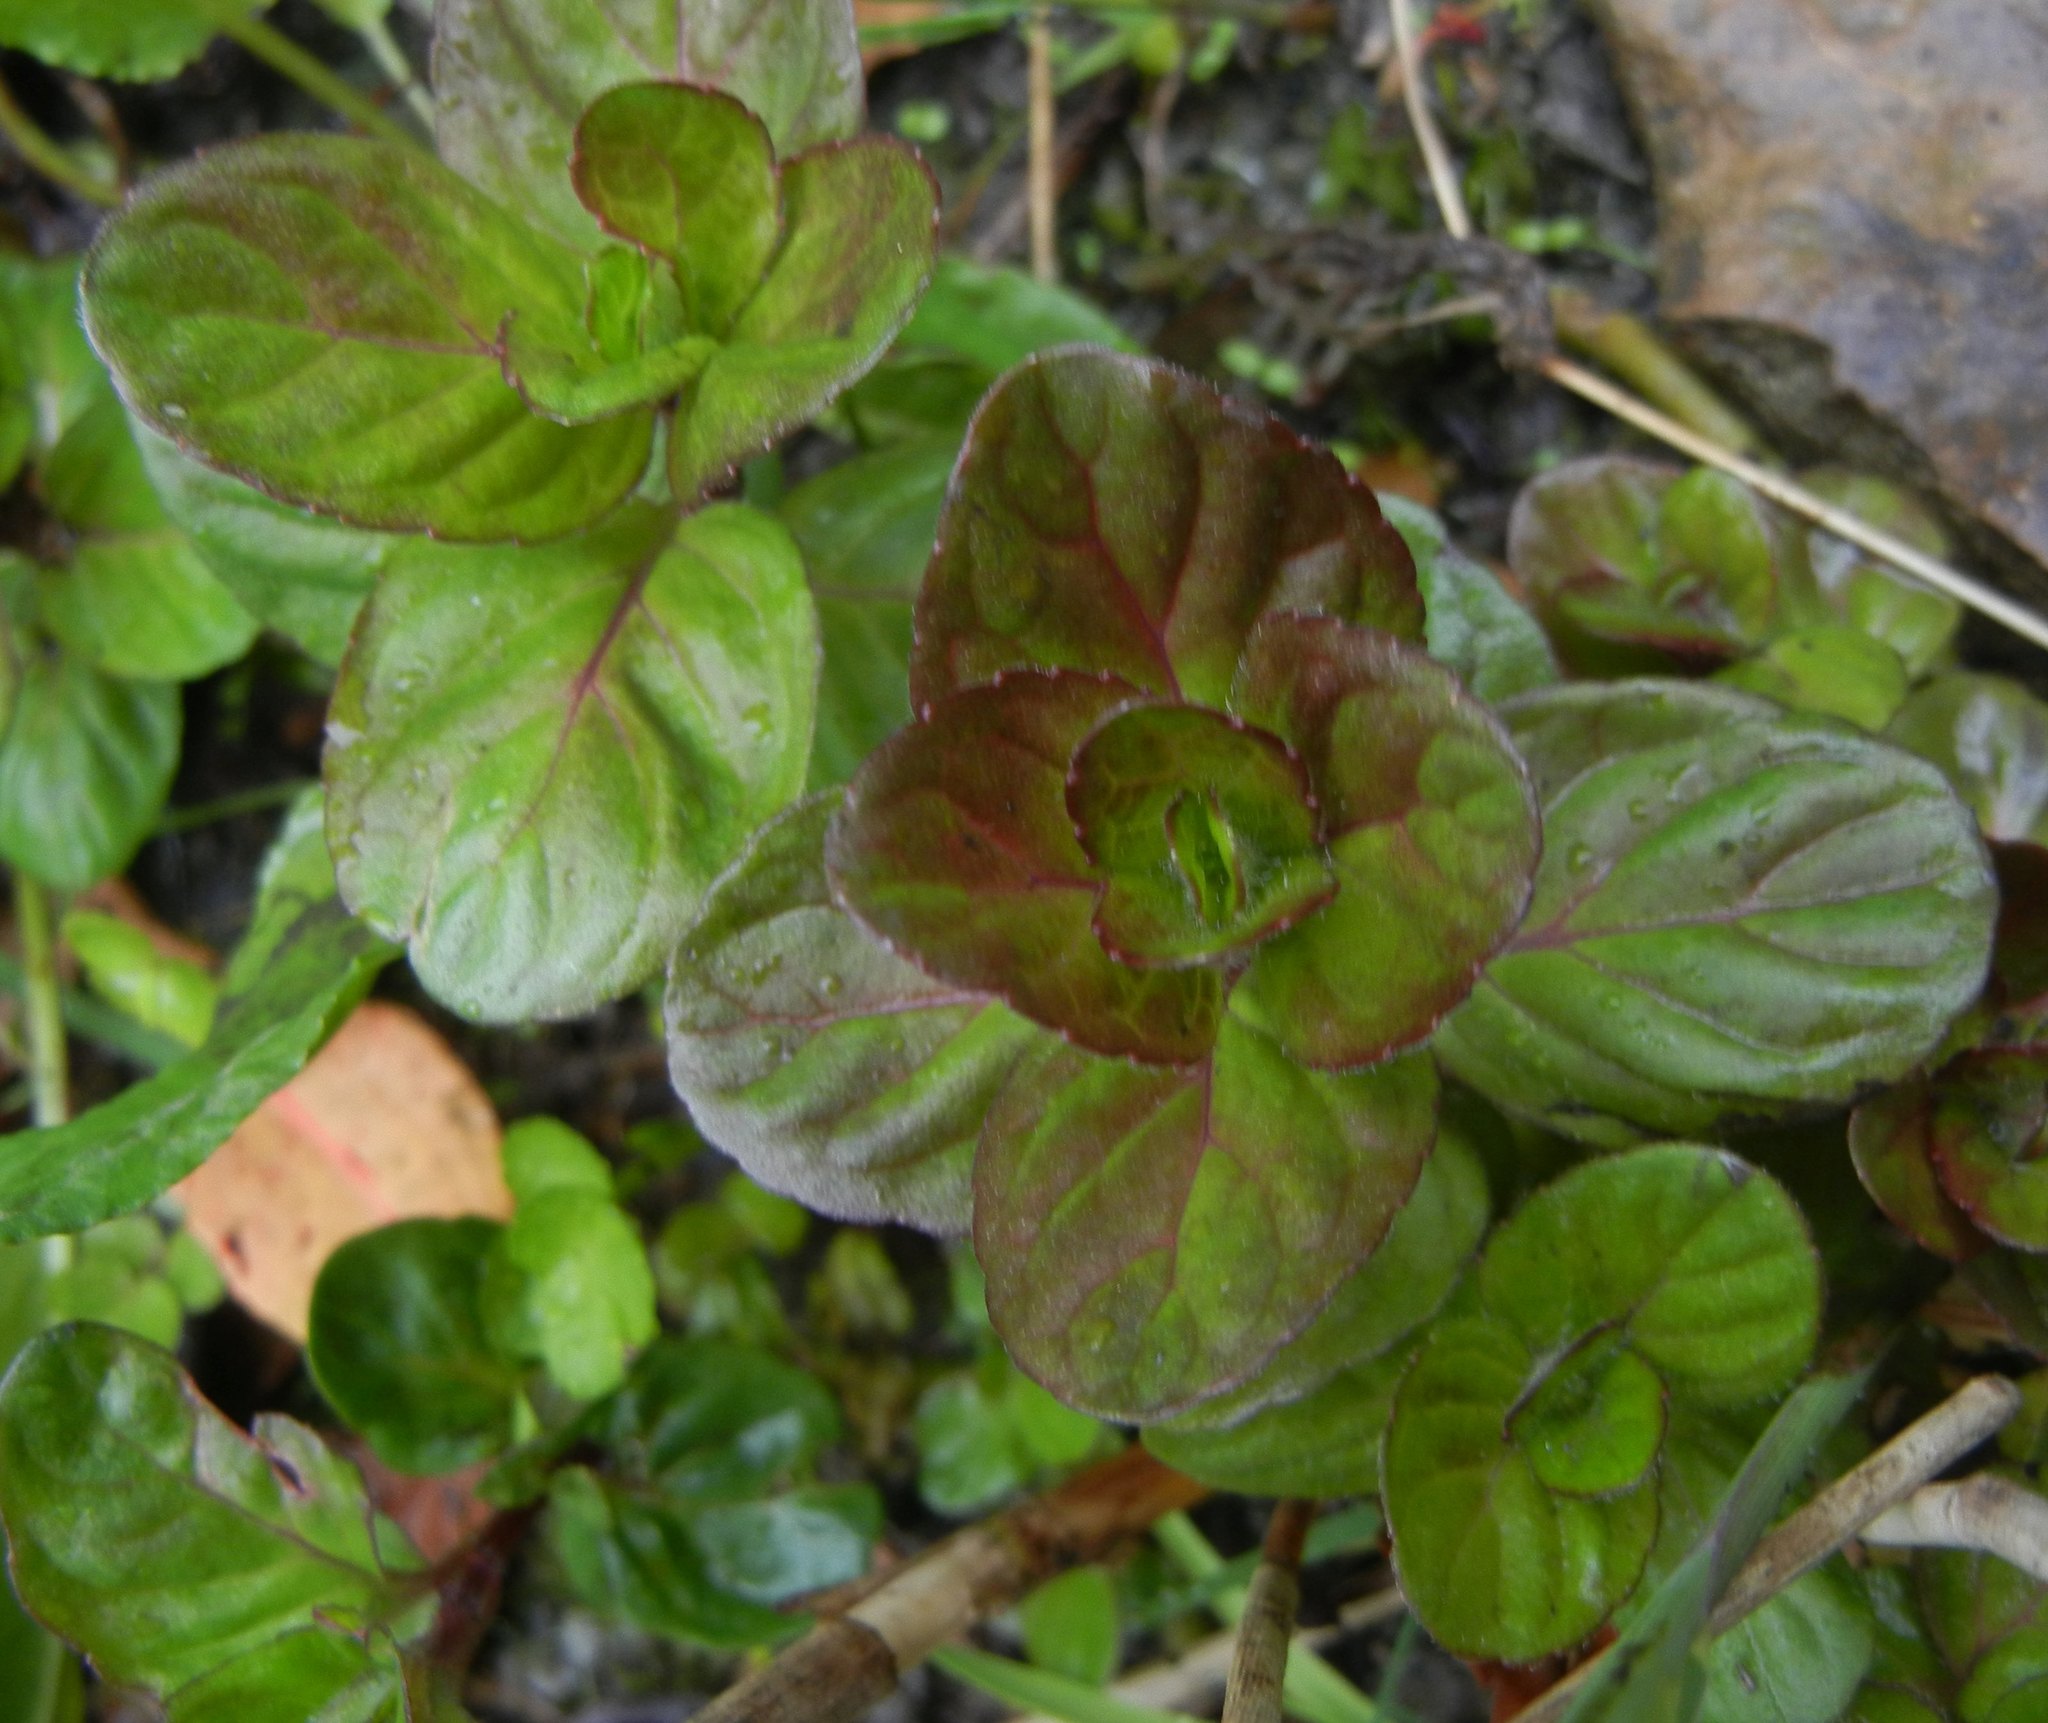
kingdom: Plantae
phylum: Tracheophyta
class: Magnoliopsida
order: Lamiales
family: Lamiaceae
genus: Mentha
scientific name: Mentha aquatica
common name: Water mint
